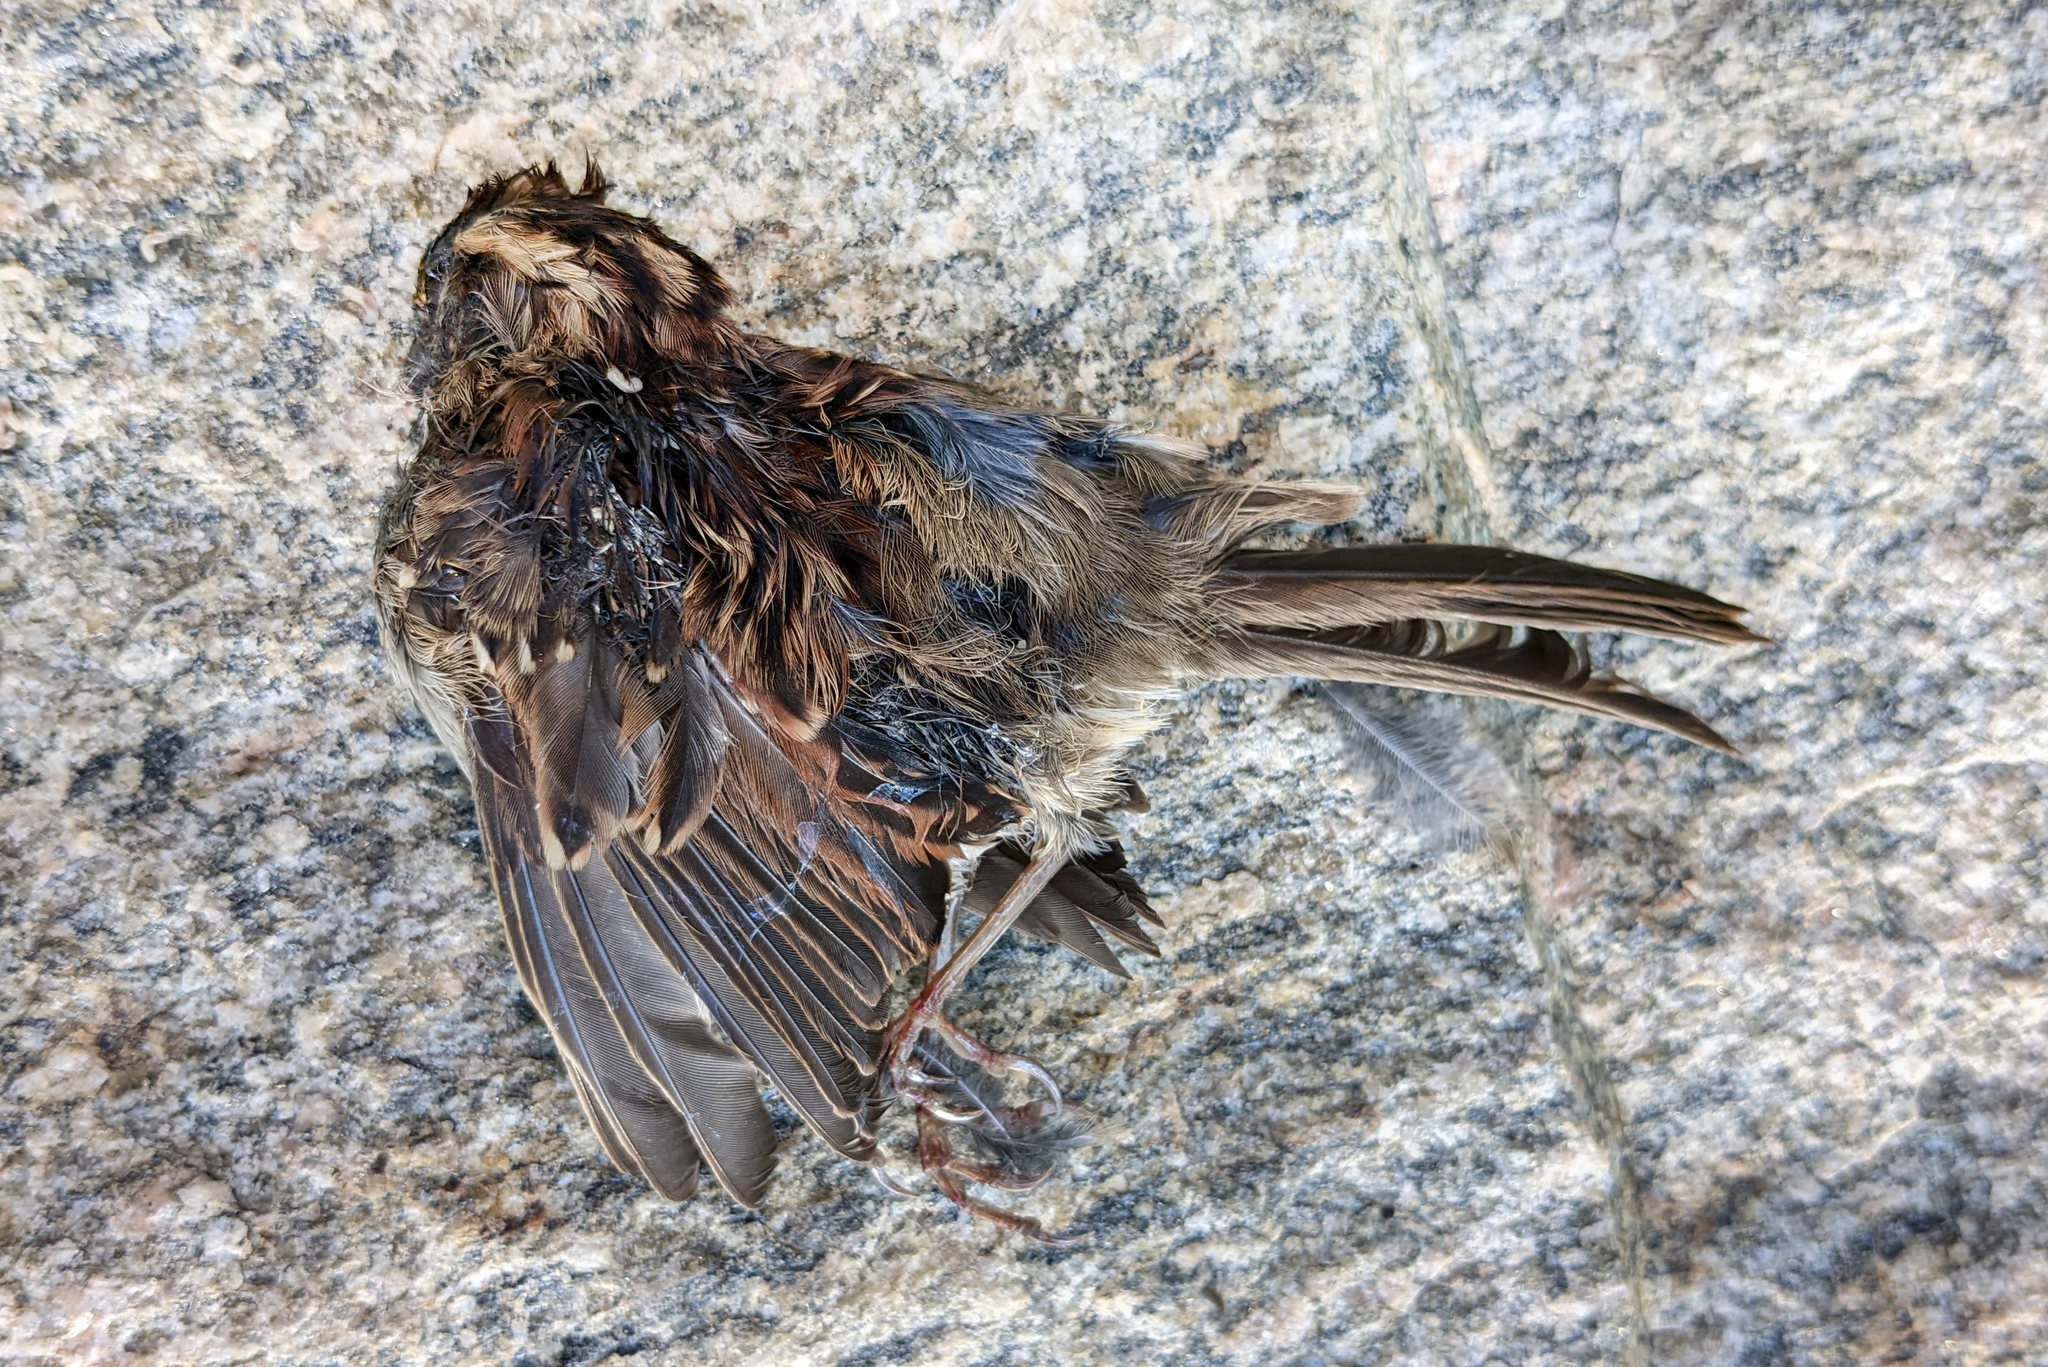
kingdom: Animalia
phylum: Chordata
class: Aves
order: Passeriformes
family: Passerellidae
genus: Zonotrichia
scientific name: Zonotrichia albicollis
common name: White-throated sparrow
